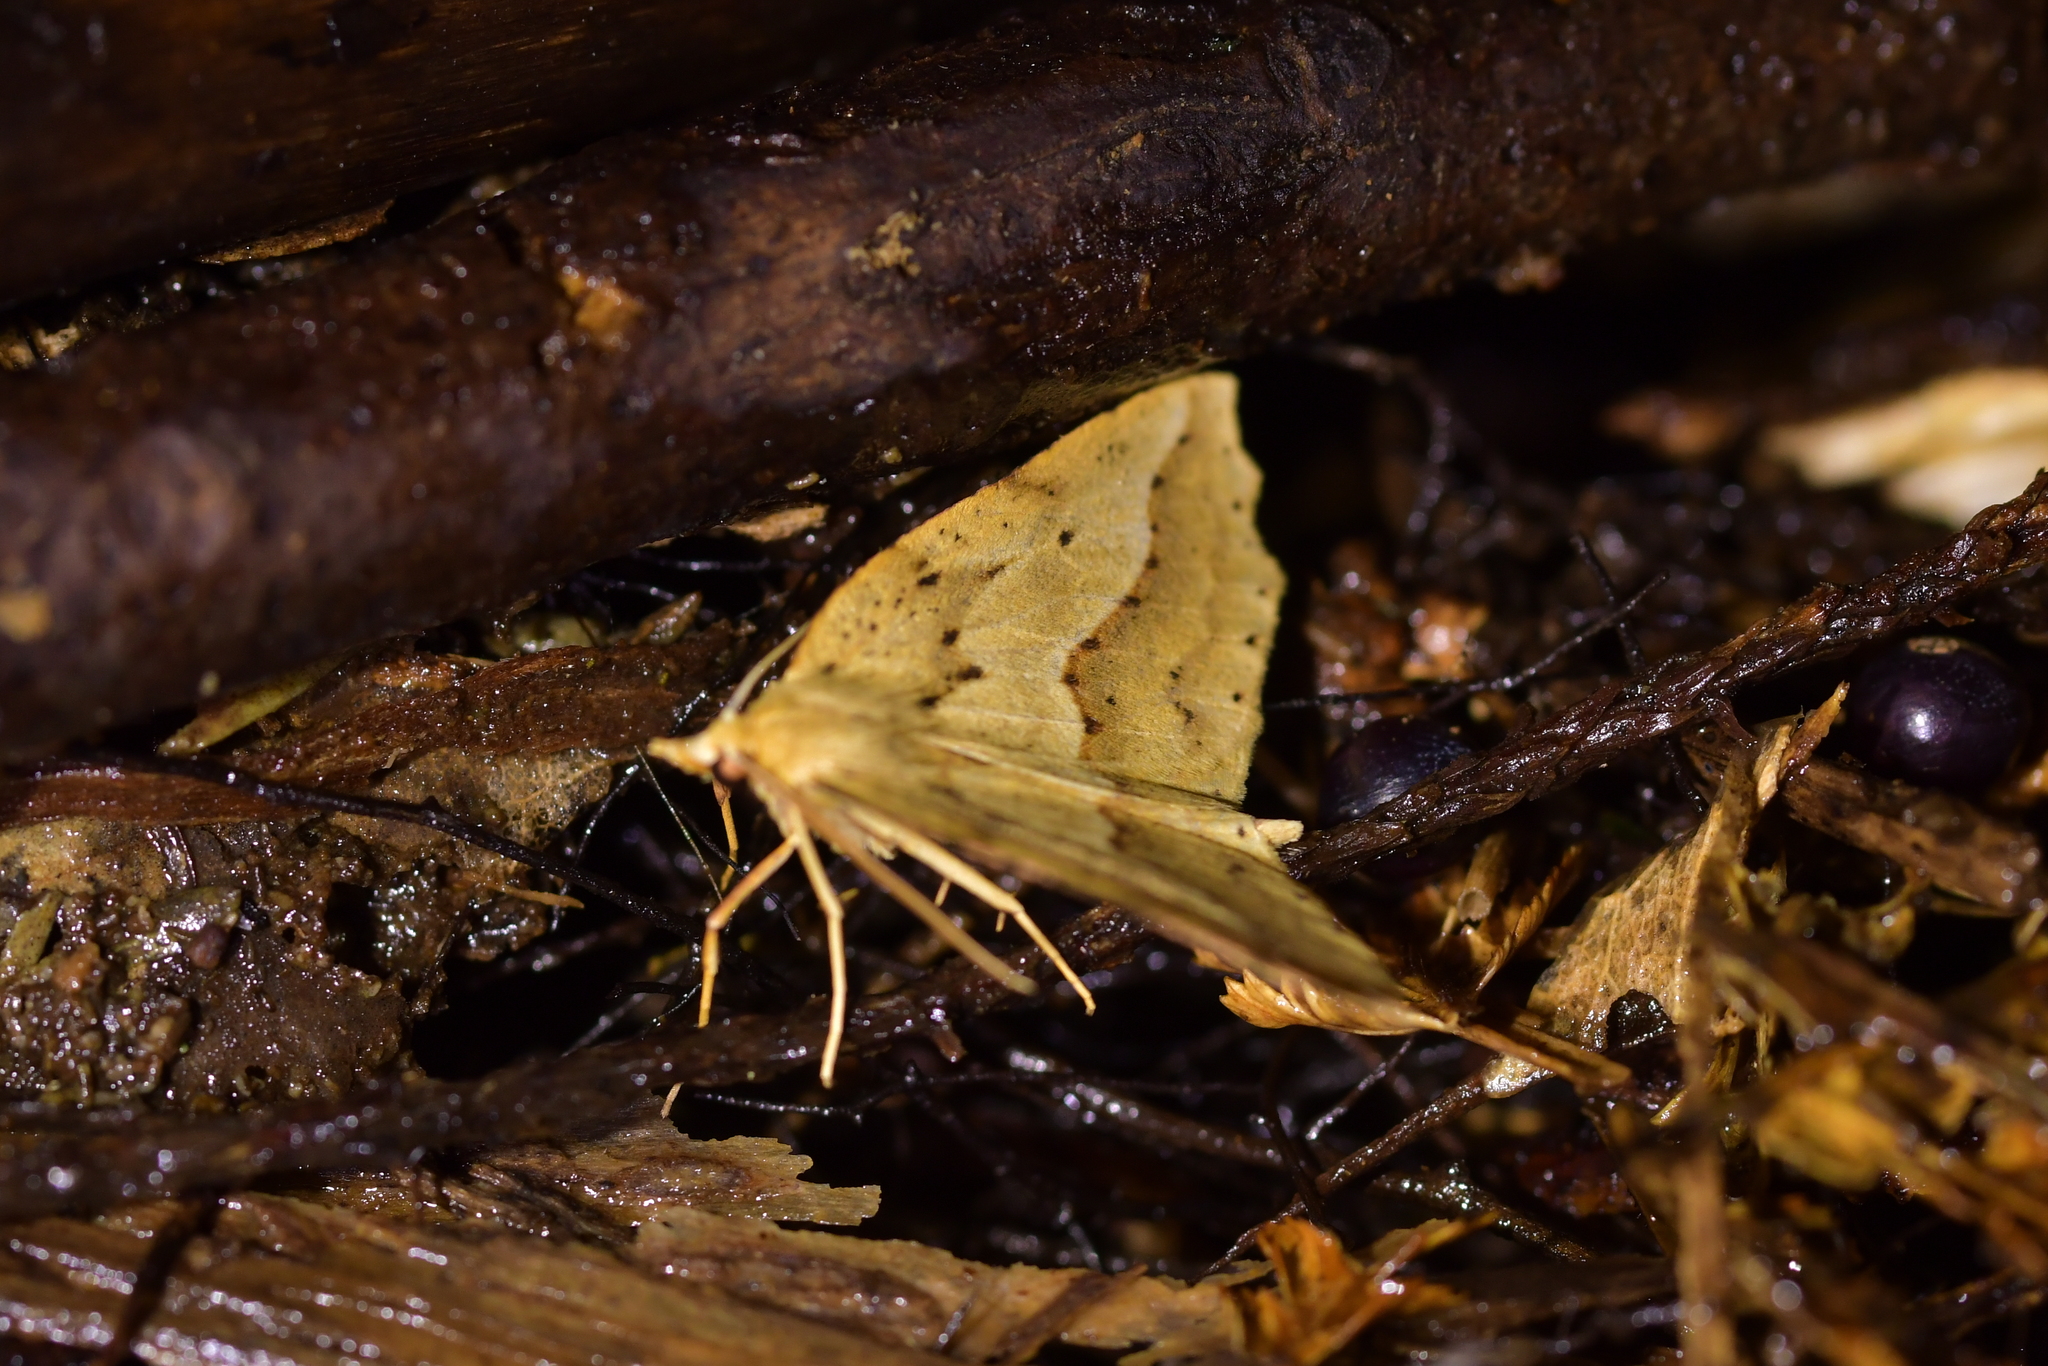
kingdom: Animalia
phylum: Arthropoda
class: Insecta
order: Lepidoptera
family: Geometridae
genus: Ischalis
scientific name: Ischalis variabilis
